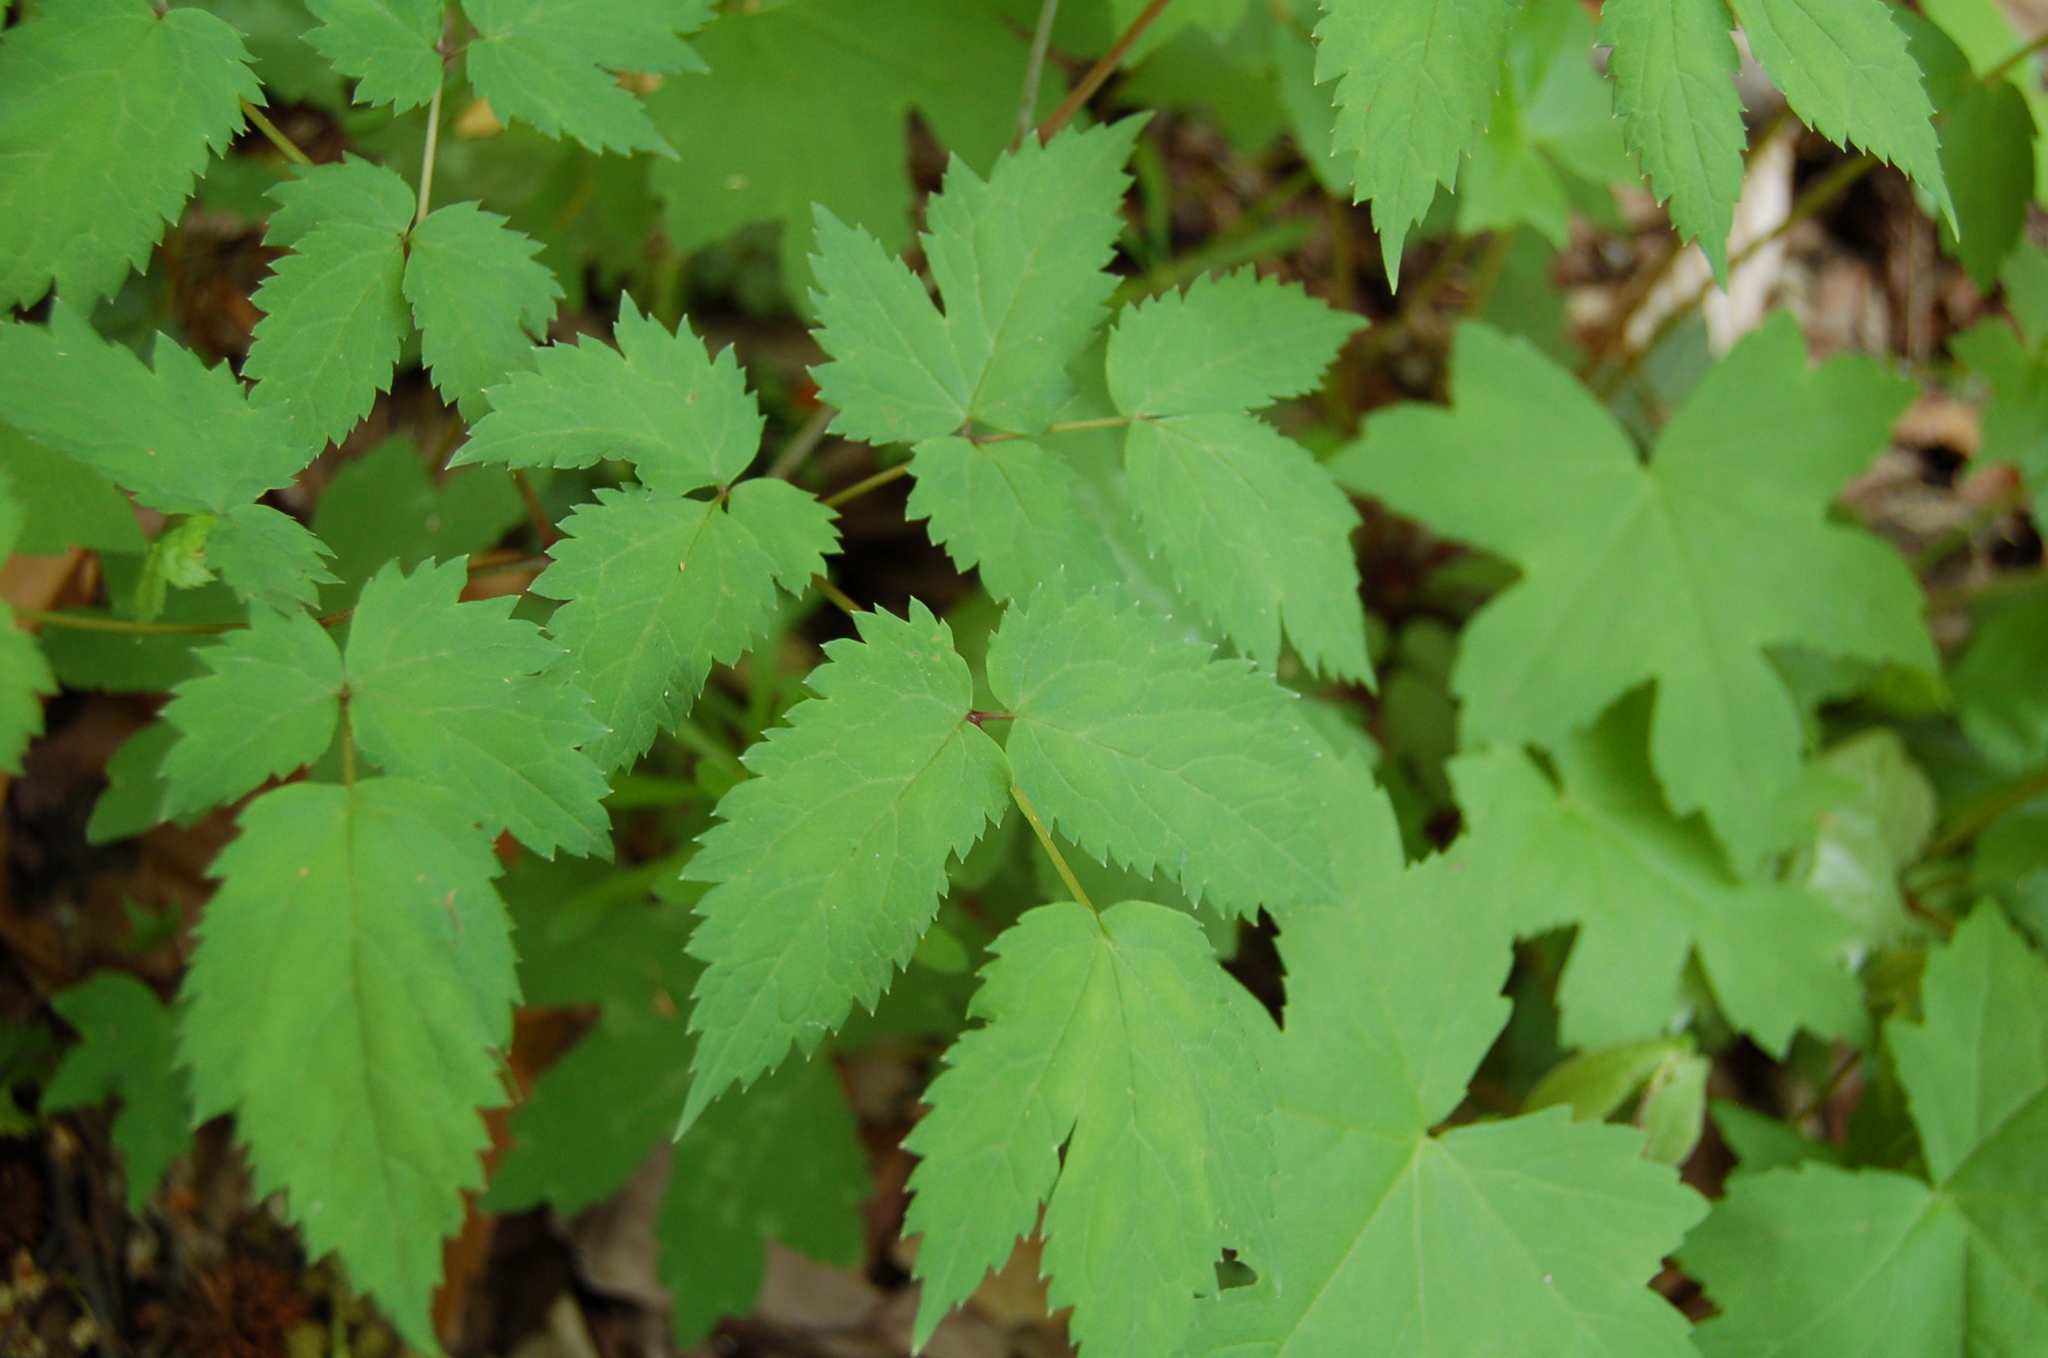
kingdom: Plantae
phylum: Tracheophyta
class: Magnoliopsida
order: Ranunculales
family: Ranunculaceae
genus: Actaea
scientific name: Actaea pachypoda
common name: Doll's-eyes
